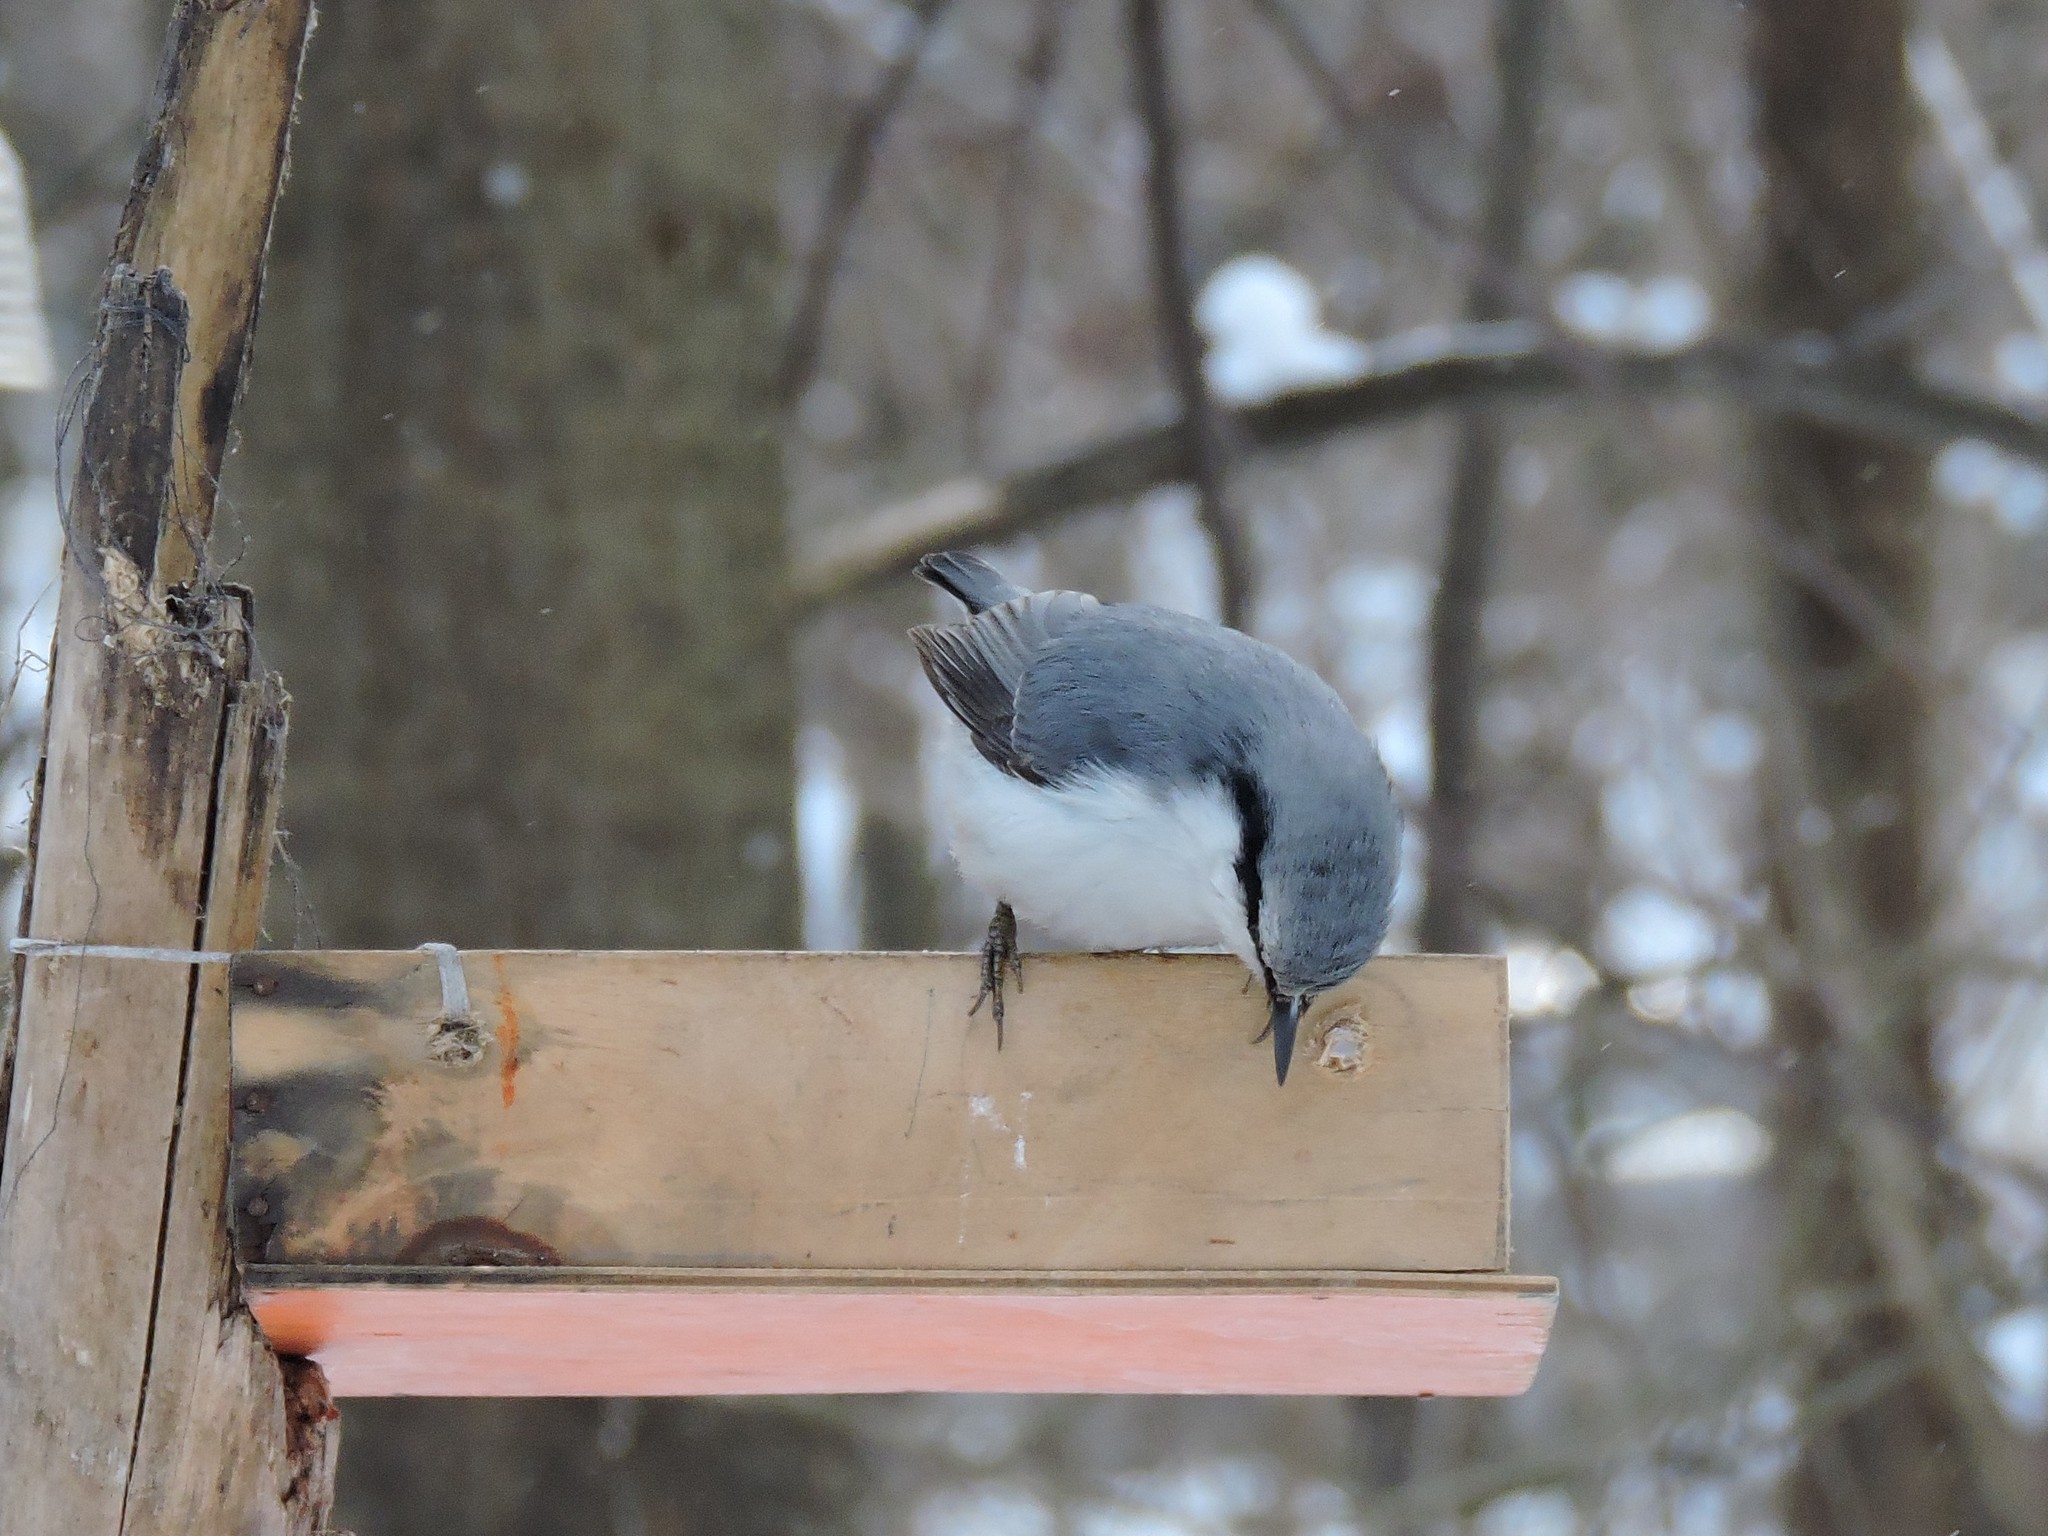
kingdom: Animalia
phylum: Chordata
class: Aves
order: Passeriformes
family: Sittidae
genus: Sitta
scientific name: Sitta europaea
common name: Eurasian nuthatch
